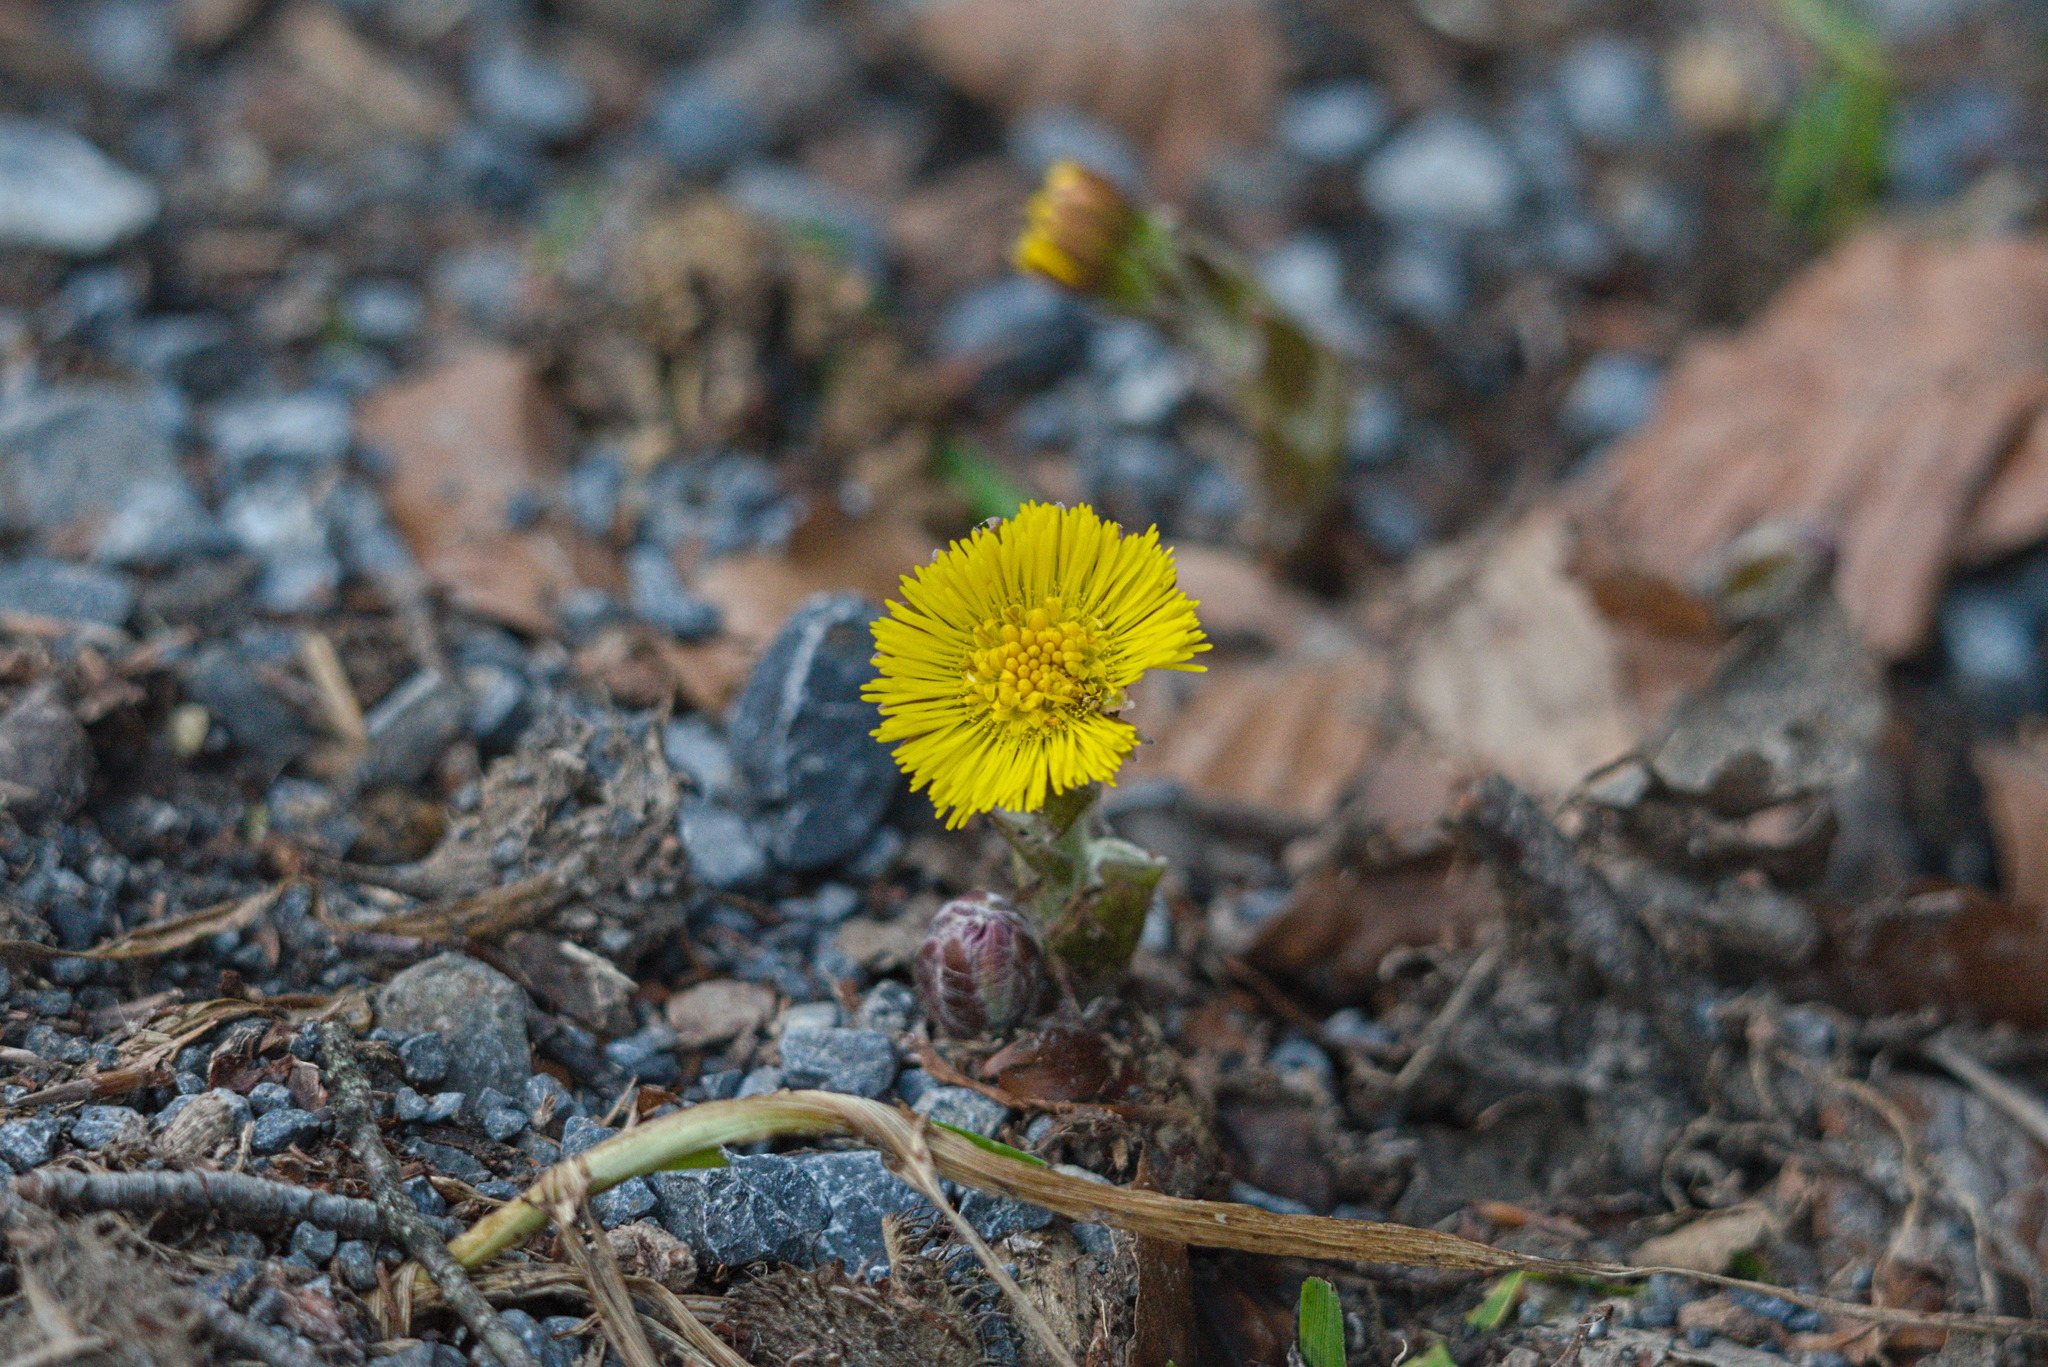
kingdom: Plantae
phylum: Tracheophyta
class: Magnoliopsida
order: Asterales
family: Asteraceae
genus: Tussilago
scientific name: Tussilago farfara
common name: Coltsfoot
